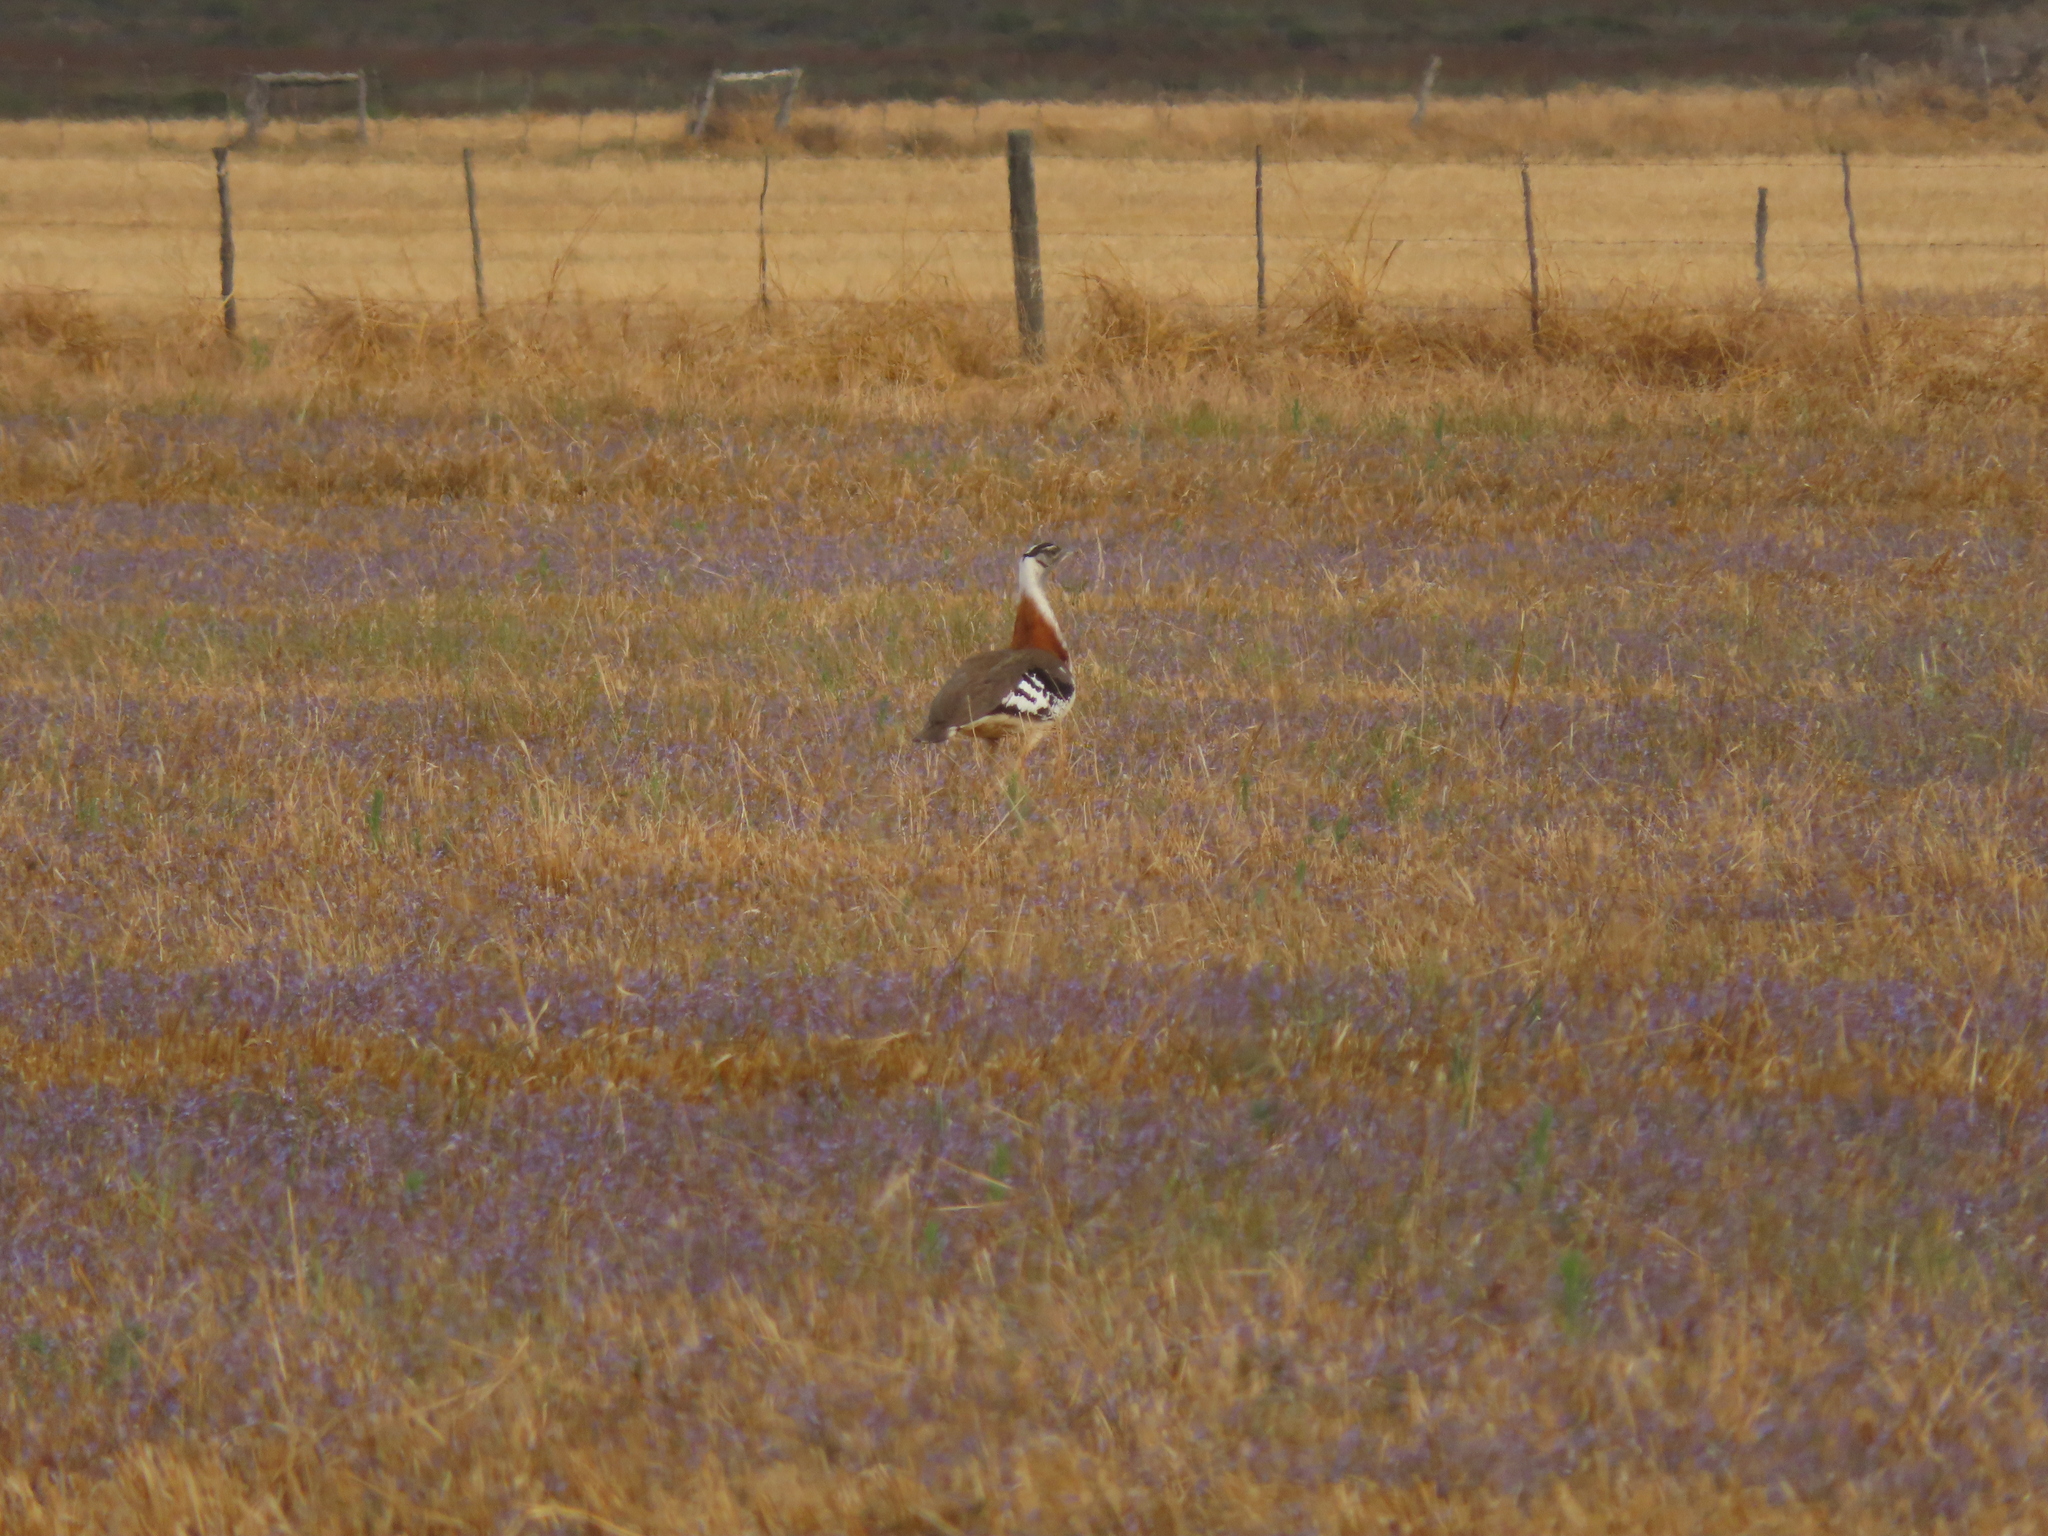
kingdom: Animalia
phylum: Chordata
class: Aves
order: Otidiformes
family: Otididae
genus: Neotis
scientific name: Neotis denhami
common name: Denham's bustard
